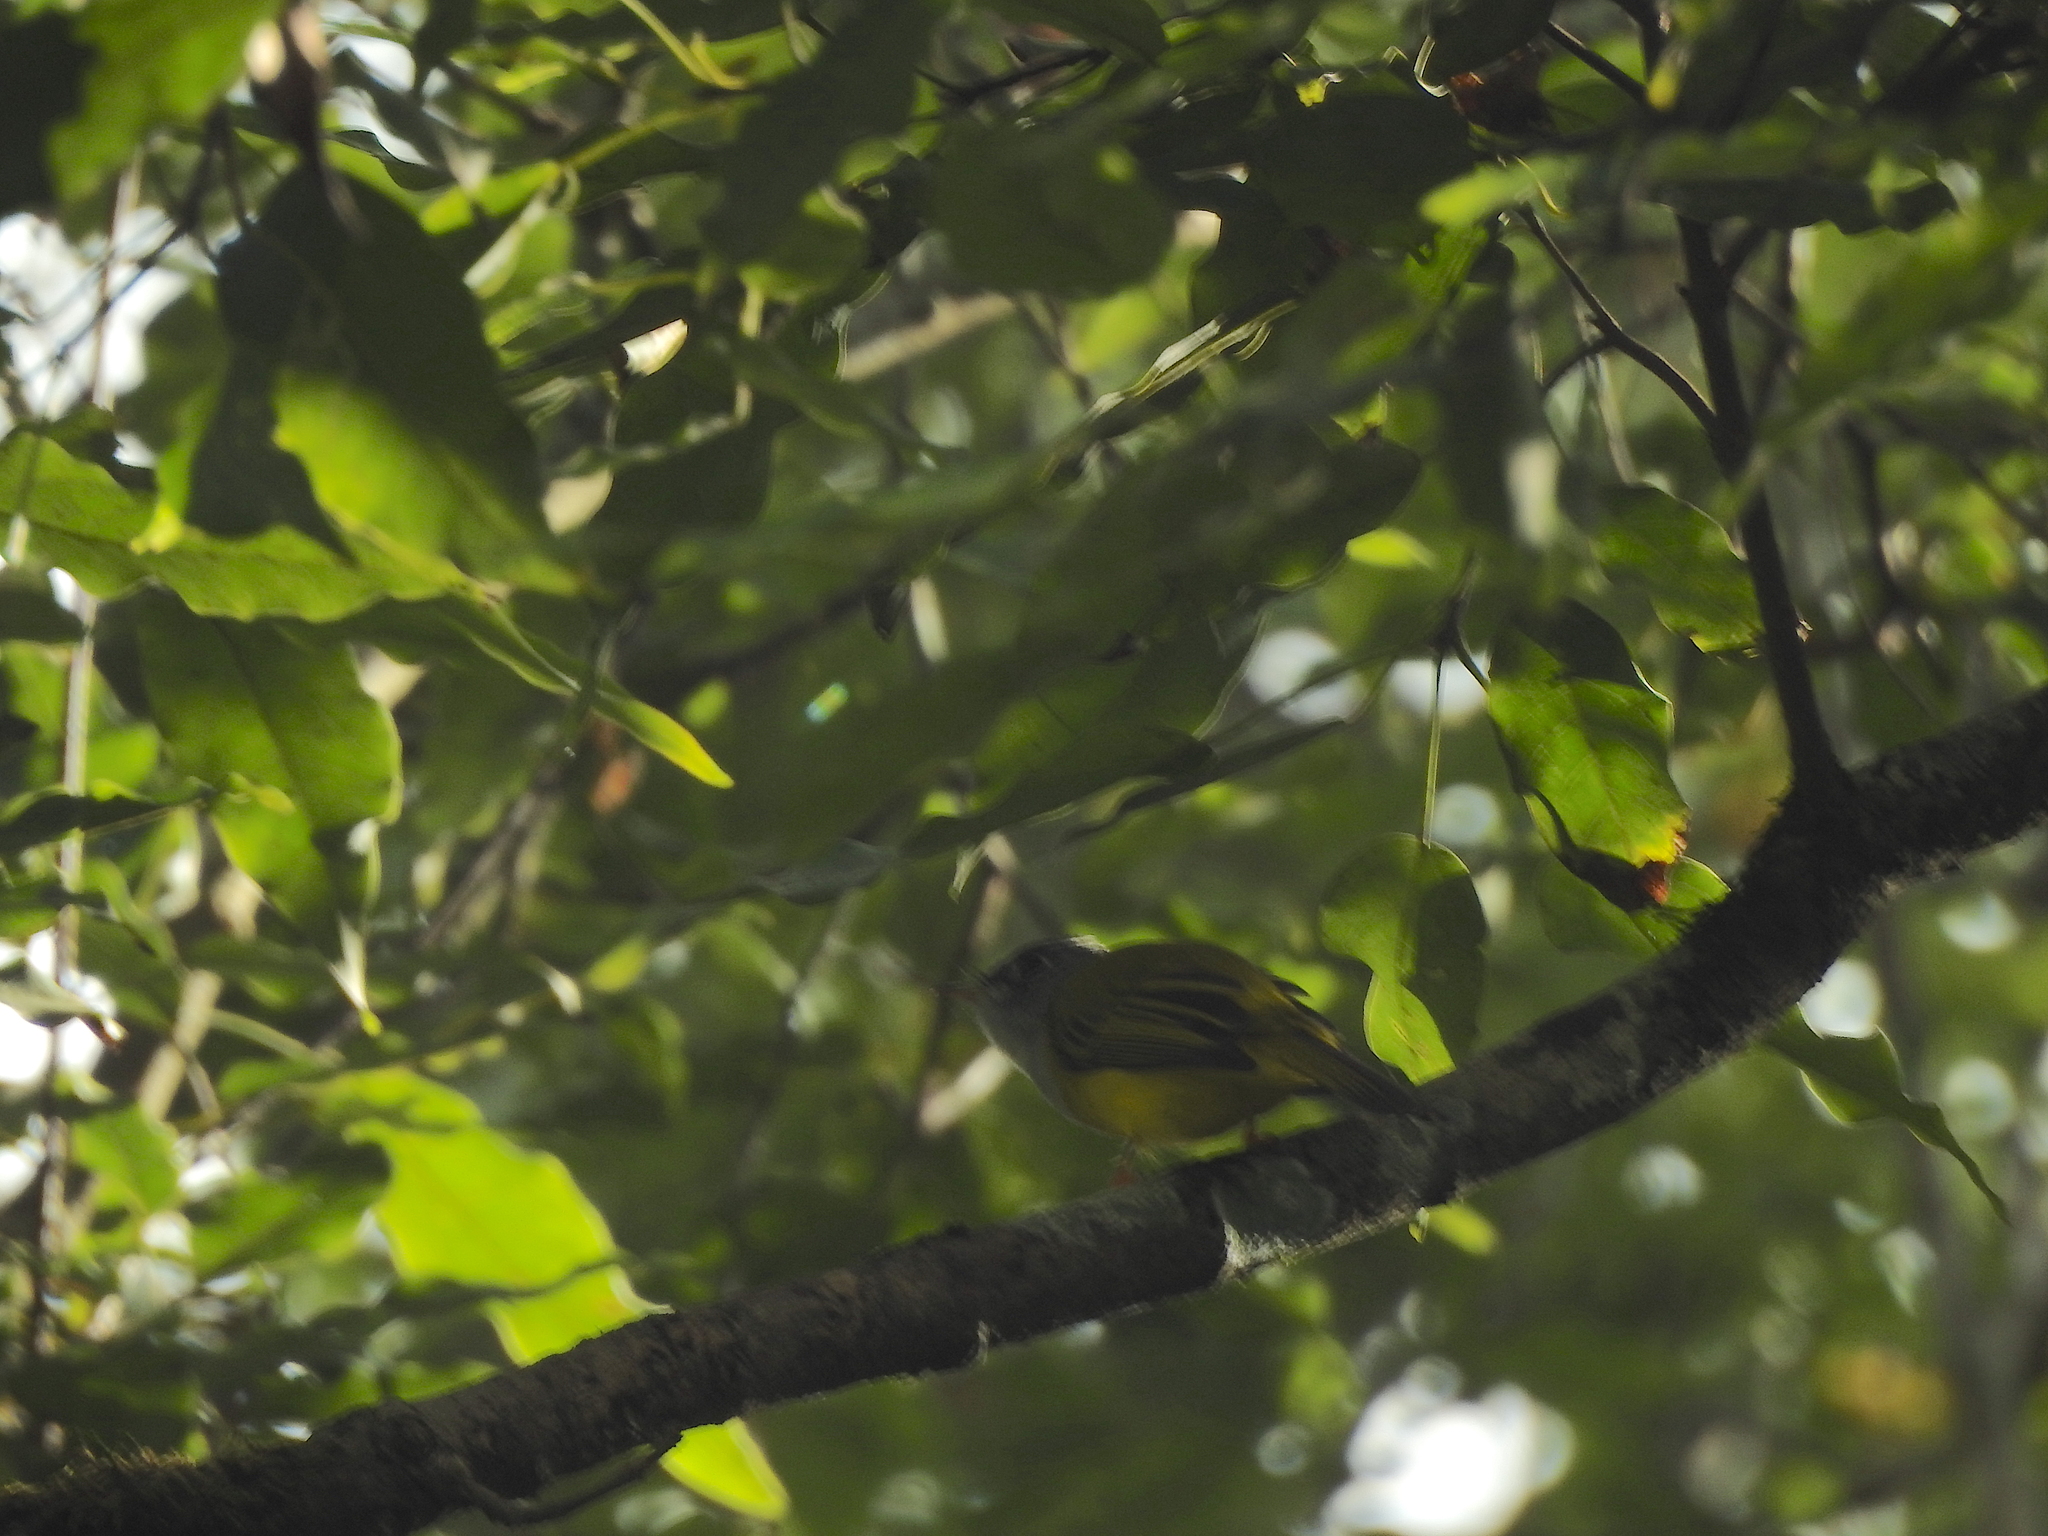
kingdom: Animalia
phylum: Chordata
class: Aves
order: Passeriformes
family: Stenostiridae
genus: Culicicapa
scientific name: Culicicapa ceylonensis
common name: Grey-headed canary-flycatcher
